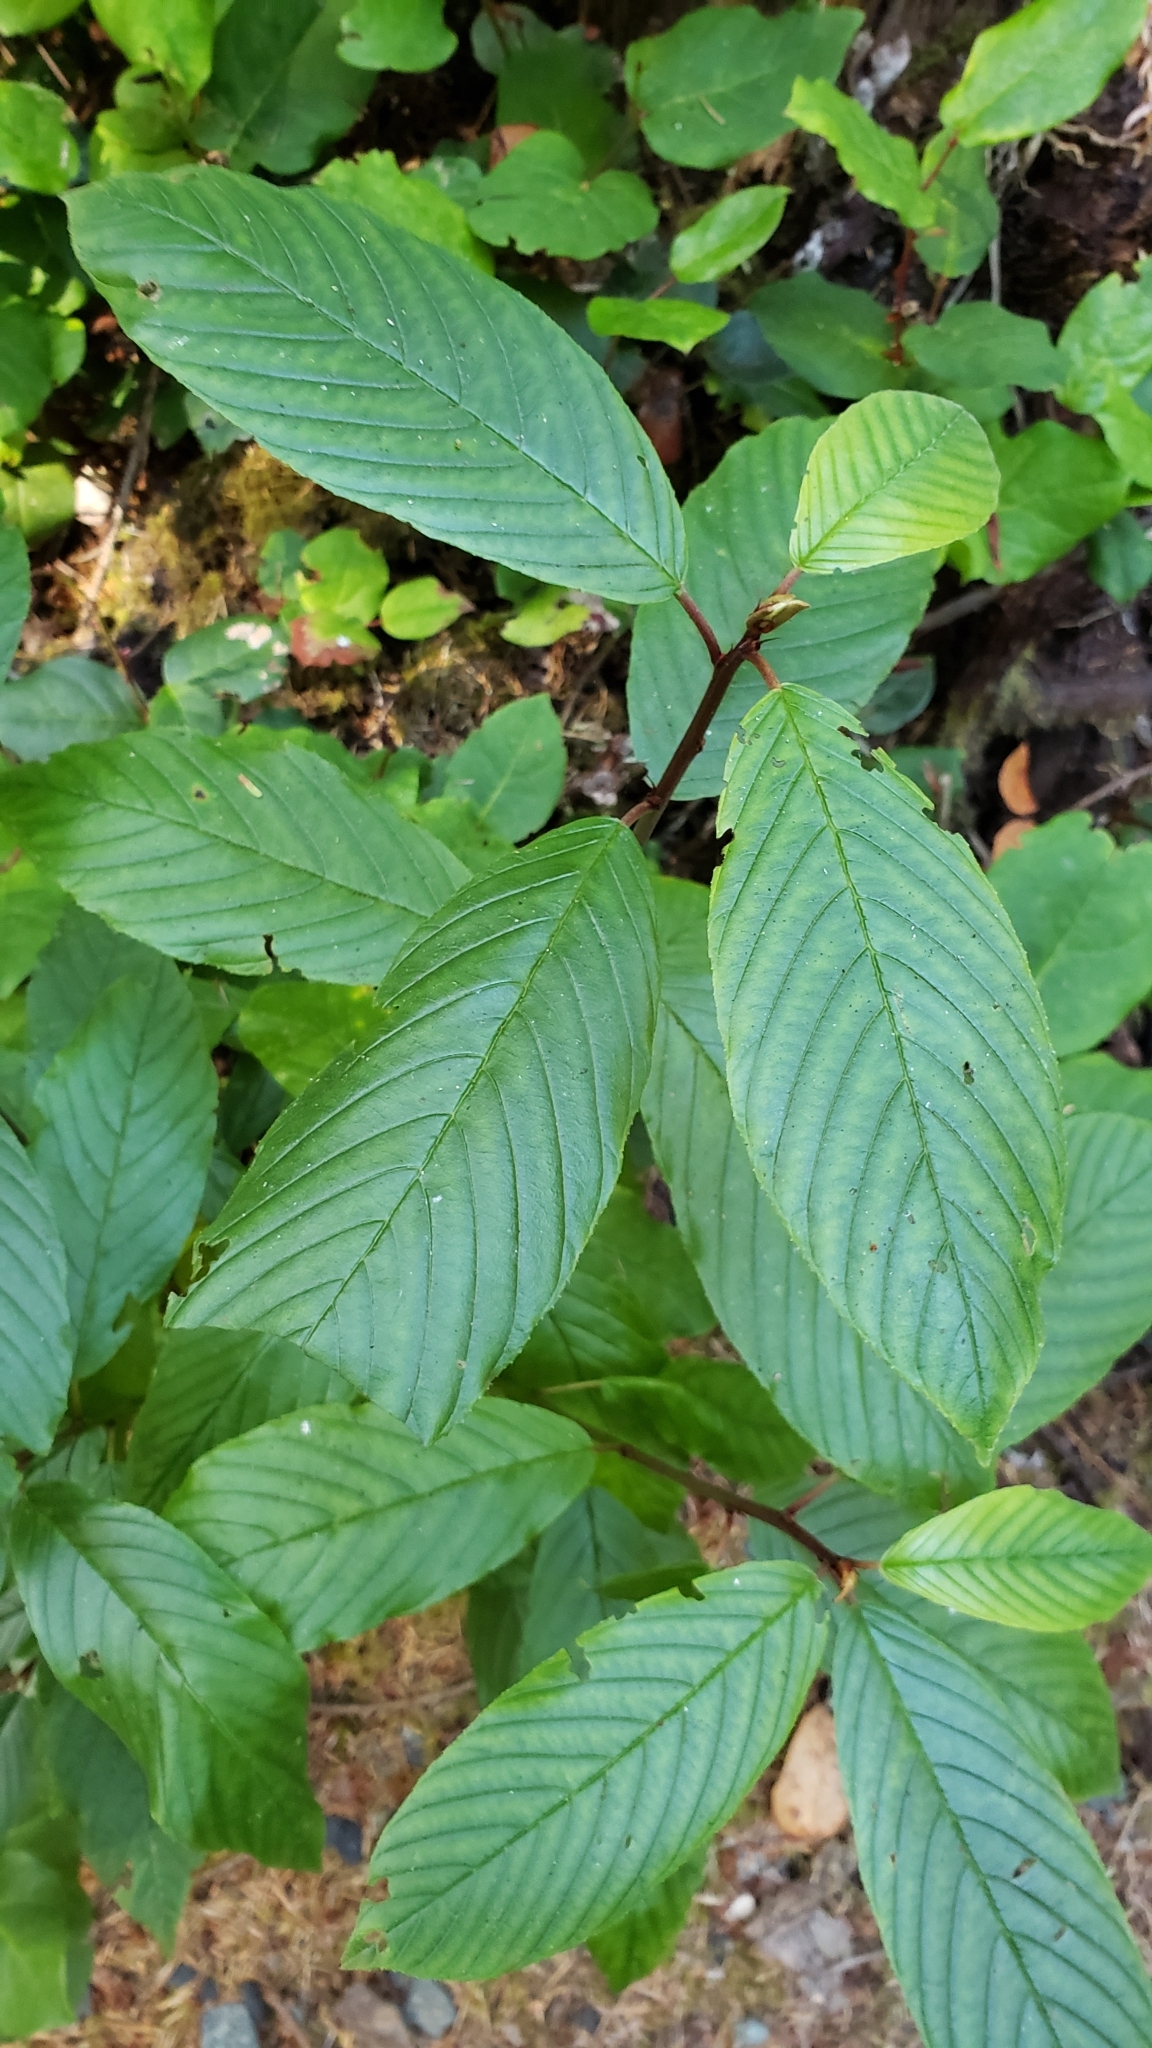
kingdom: Plantae
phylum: Tracheophyta
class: Magnoliopsida
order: Rosales
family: Rhamnaceae
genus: Frangula
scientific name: Frangula purshiana
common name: Cascara buckthorn
